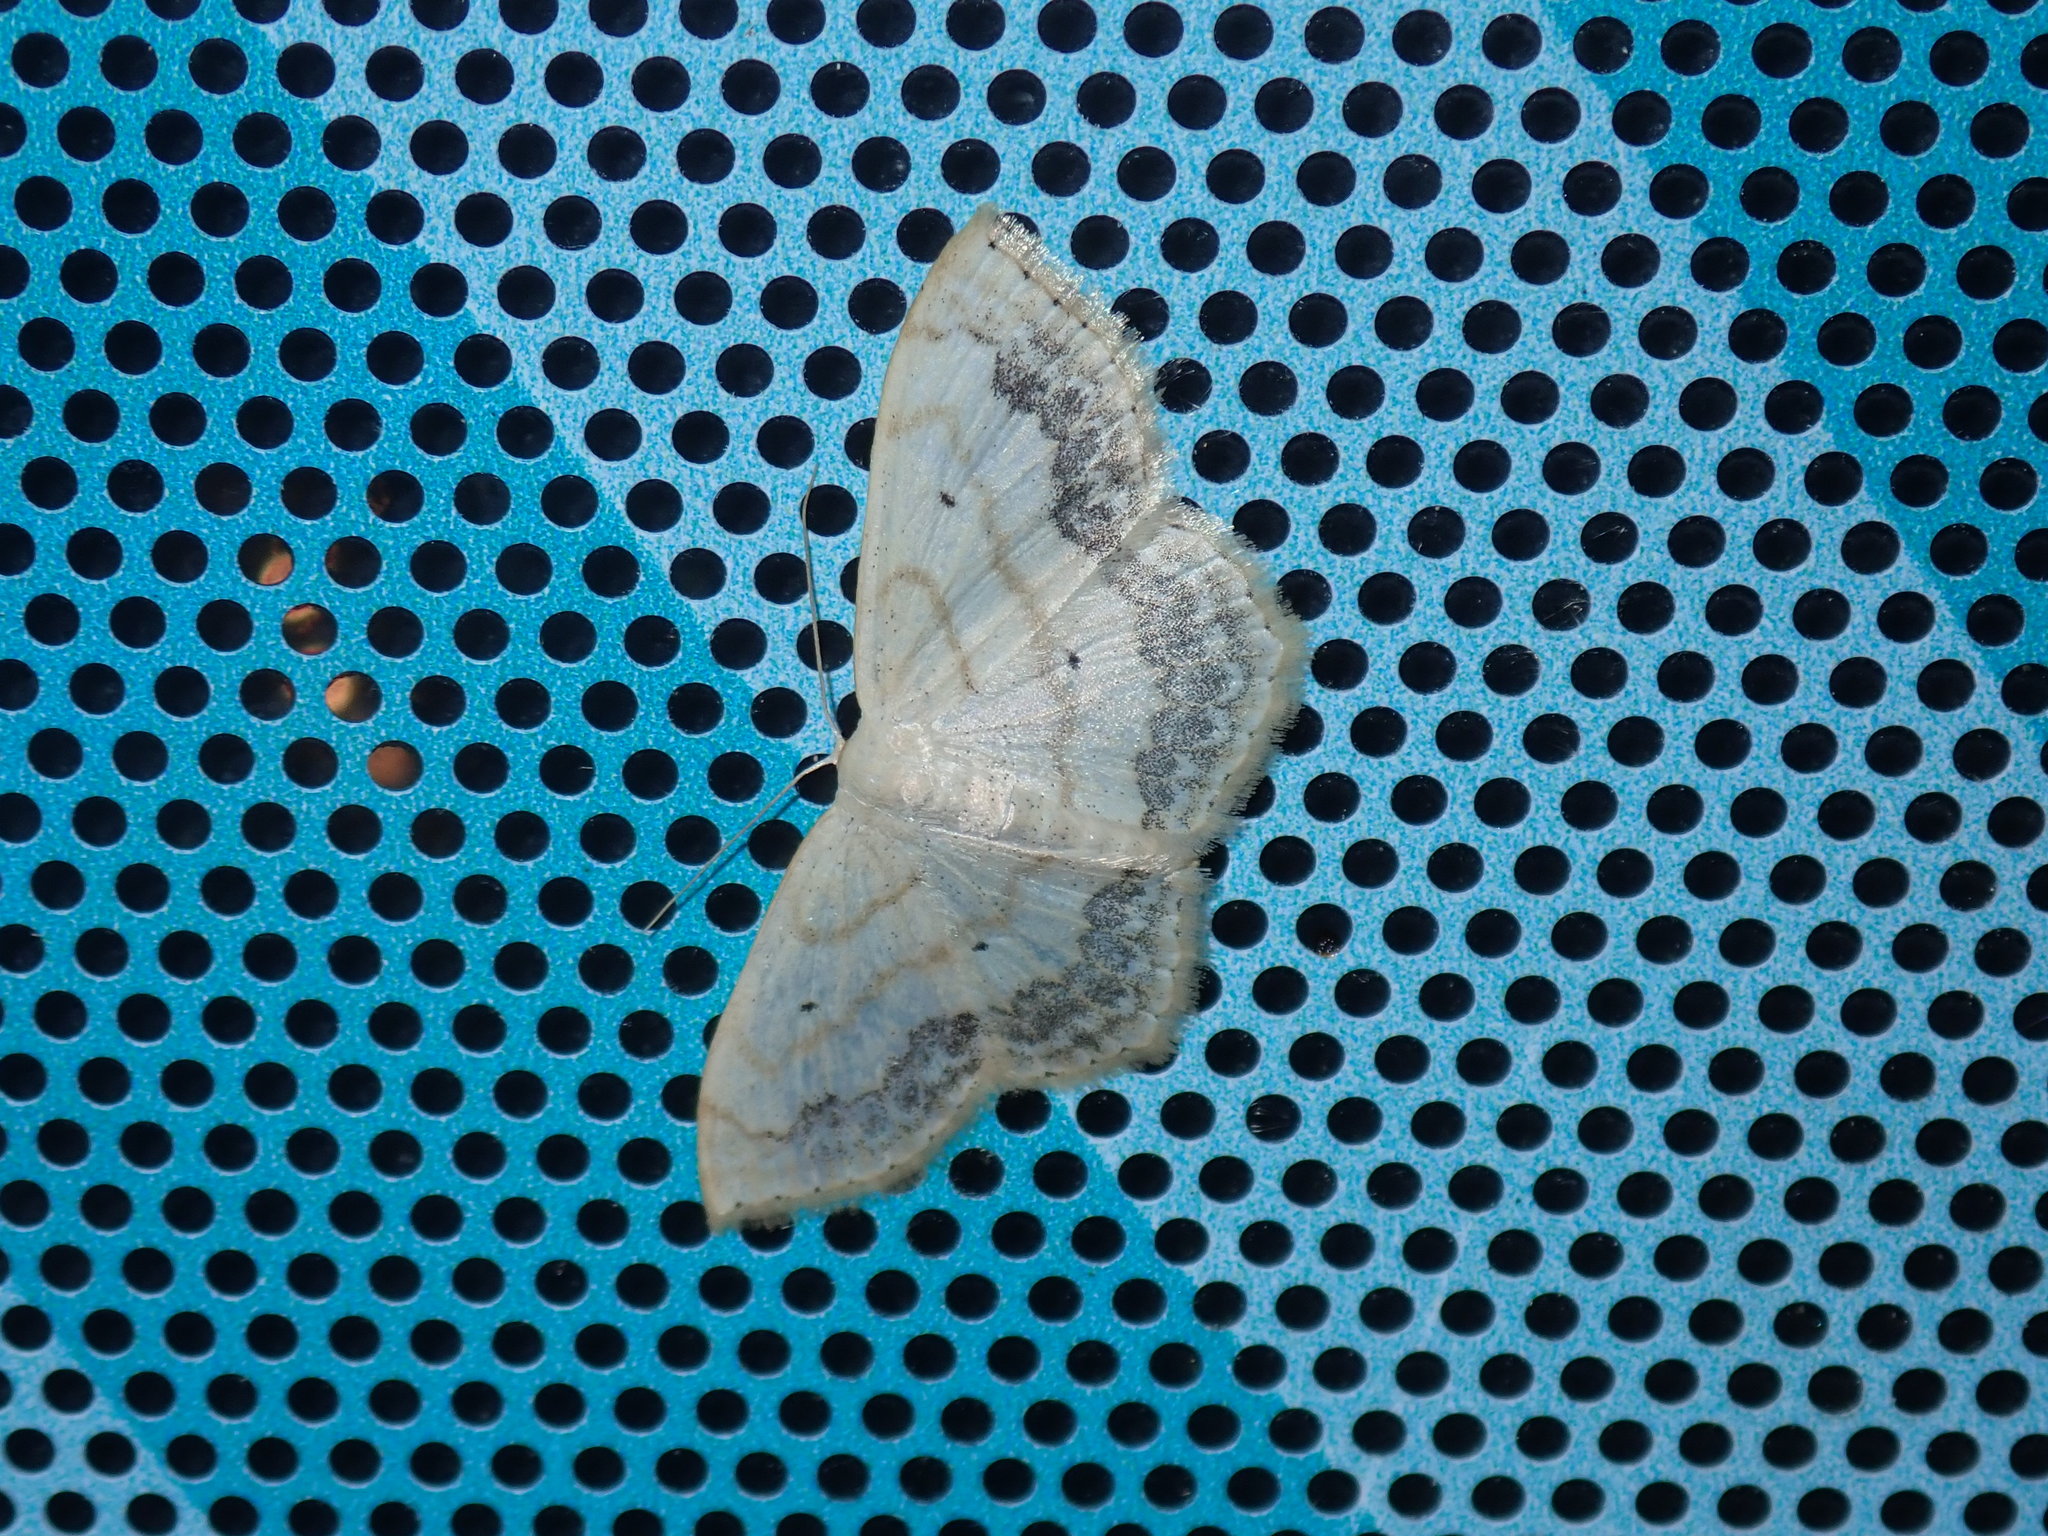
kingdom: Animalia
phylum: Arthropoda
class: Insecta
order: Lepidoptera
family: Geometridae
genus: Scopula
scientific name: Scopula limboundata
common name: Large lace border
